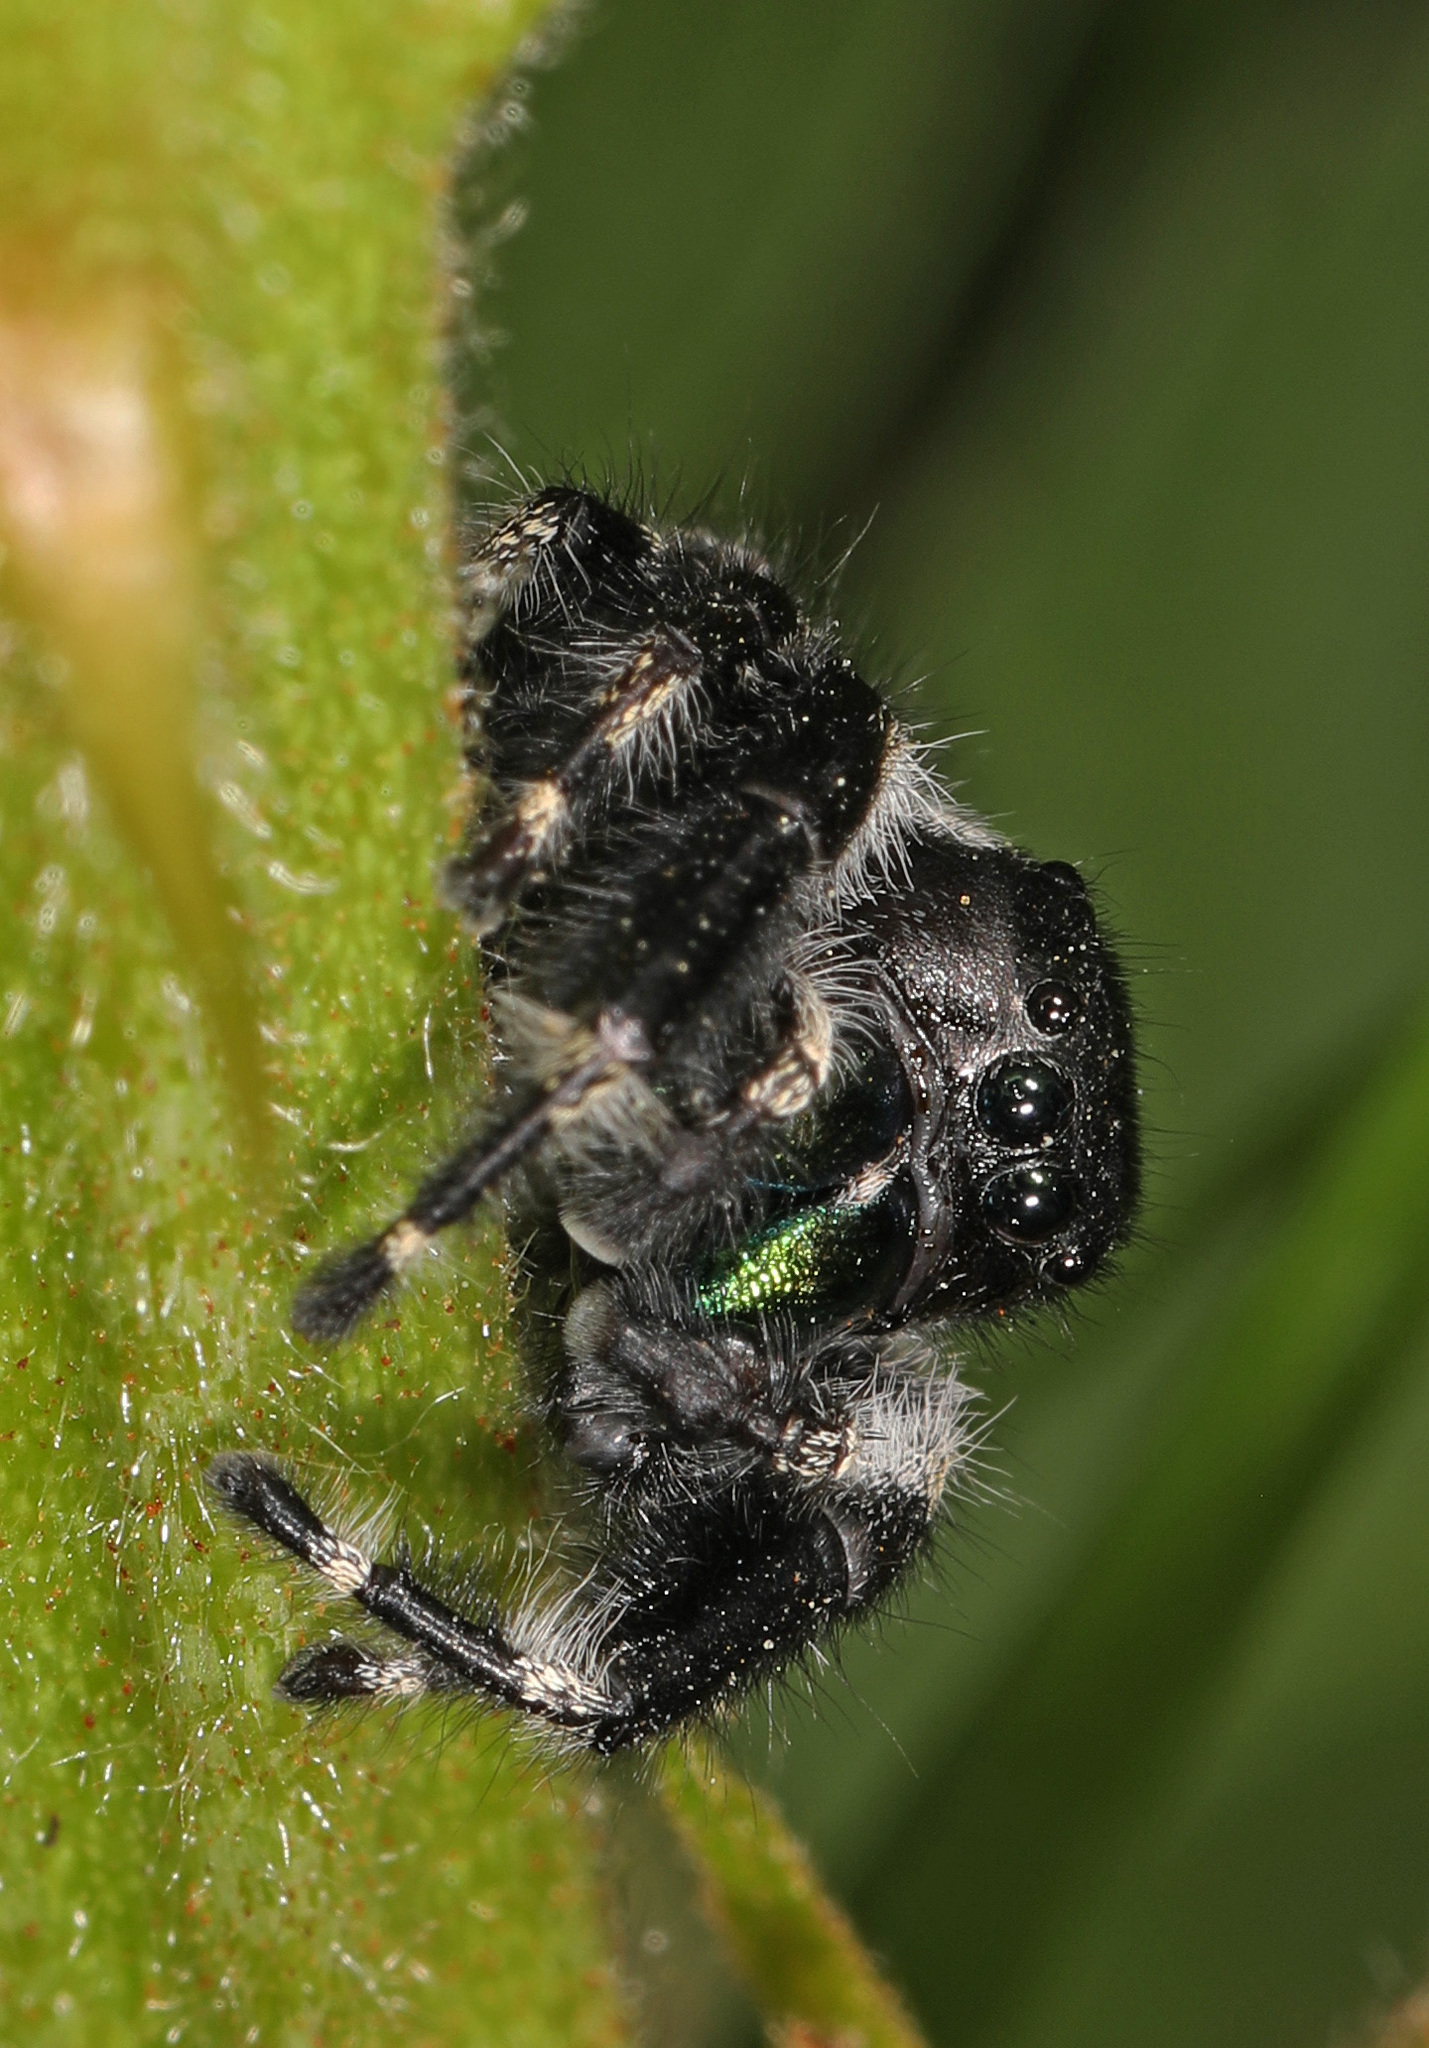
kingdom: Animalia
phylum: Arthropoda
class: Arachnida
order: Araneae
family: Salticidae
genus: Phidippus
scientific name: Phidippus audax
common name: Bold jumper
